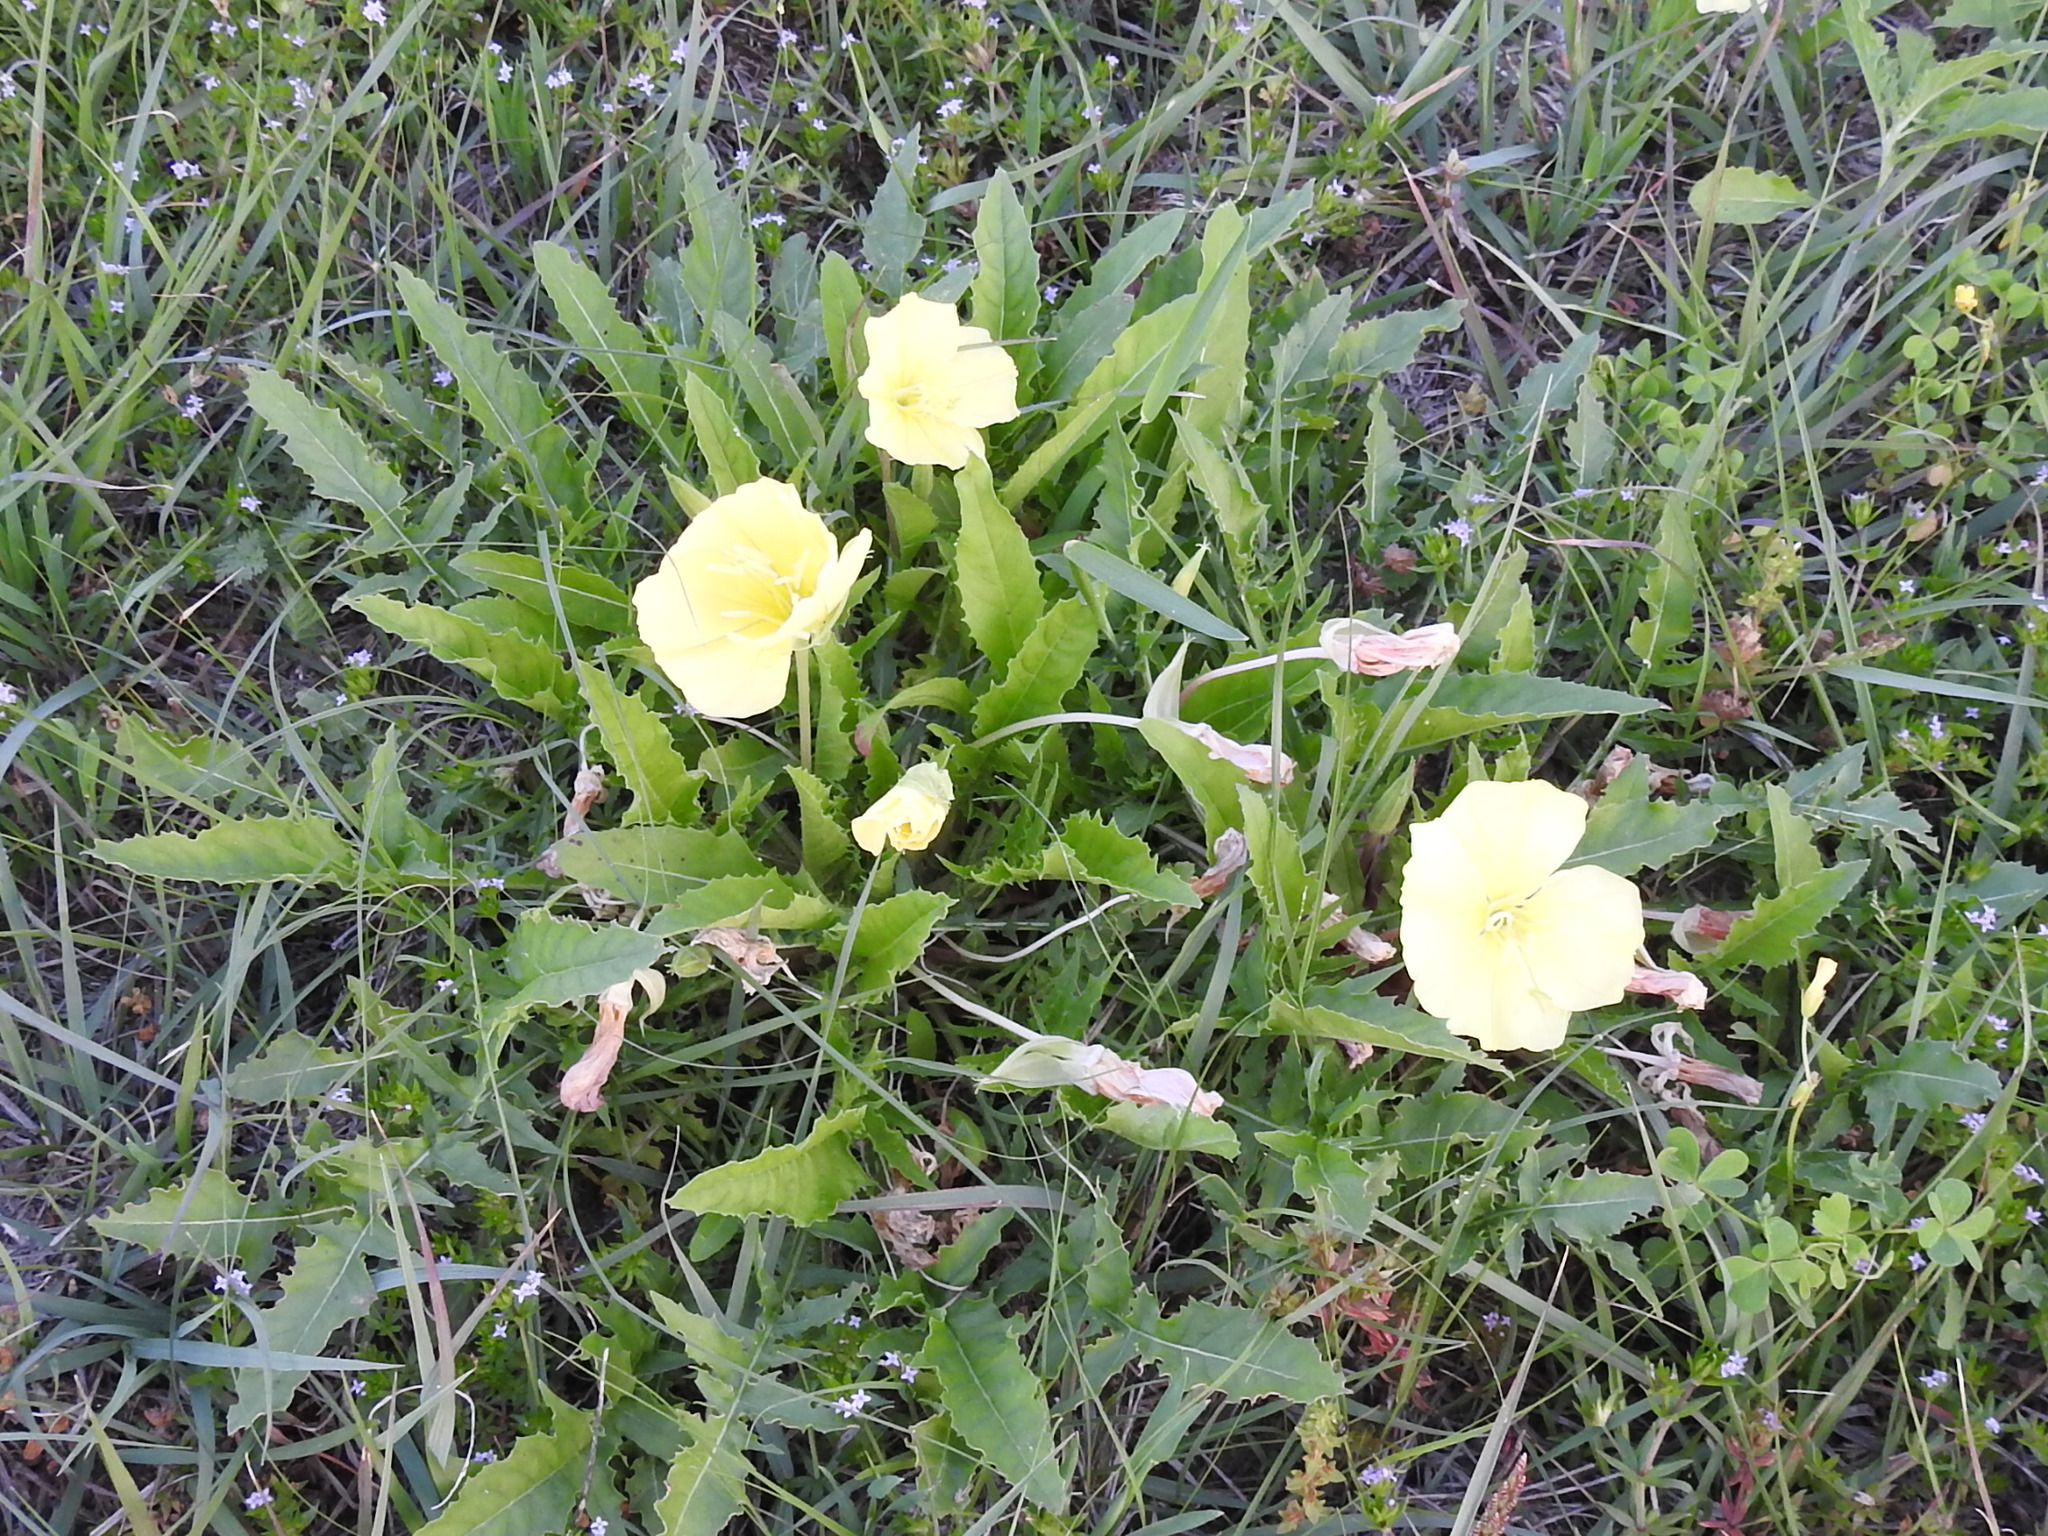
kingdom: Plantae
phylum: Tracheophyta
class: Magnoliopsida
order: Myrtales
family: Onagraceae
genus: Oenothera
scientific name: Oenothera triloba
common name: Sessile evening-primrose
